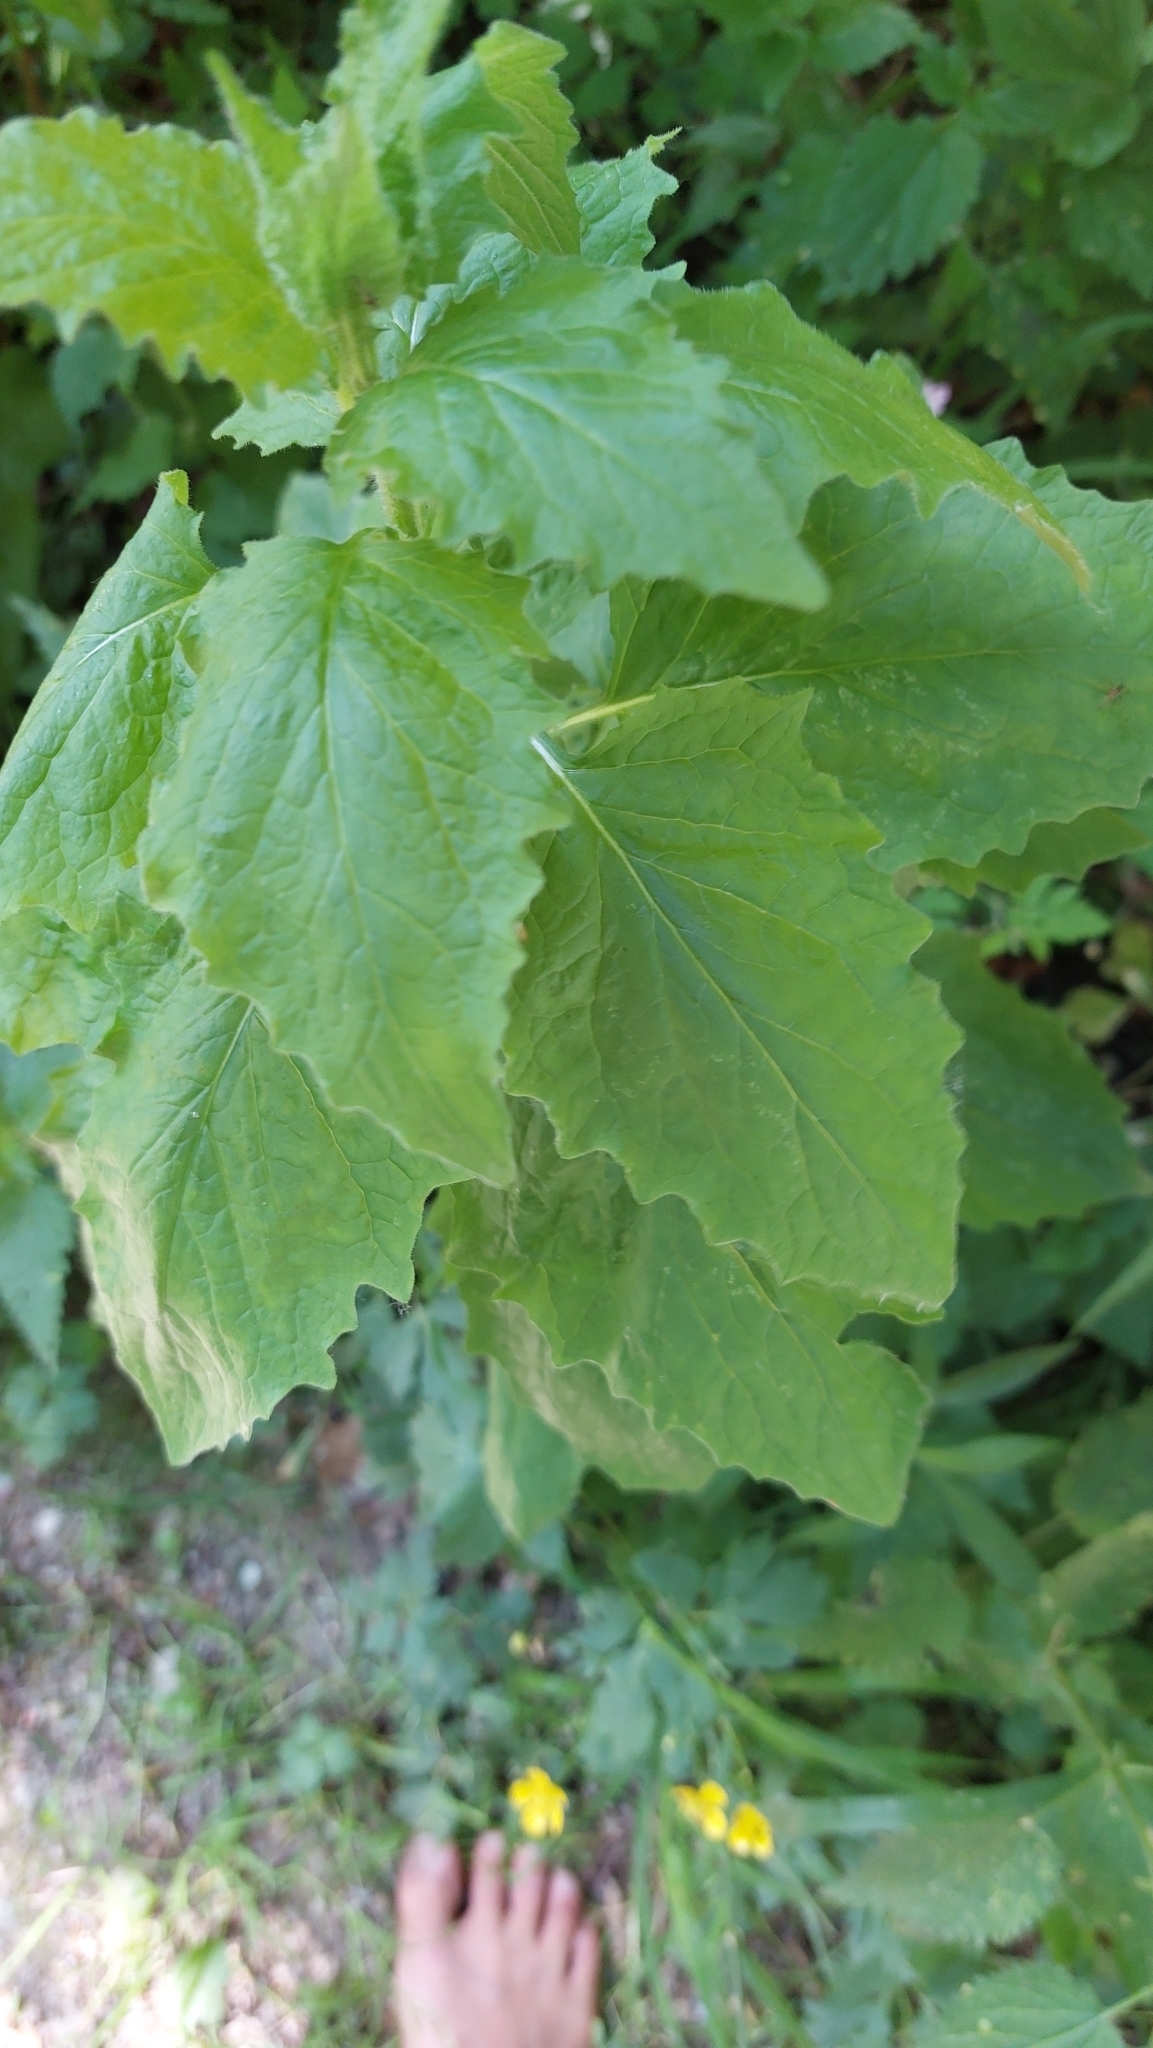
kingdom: Plantae
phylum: Tracheophyta
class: Magnoliopsida
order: Asterales
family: Asteraceae
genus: Lapsana
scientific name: Lapsana communis
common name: Nipplewort
